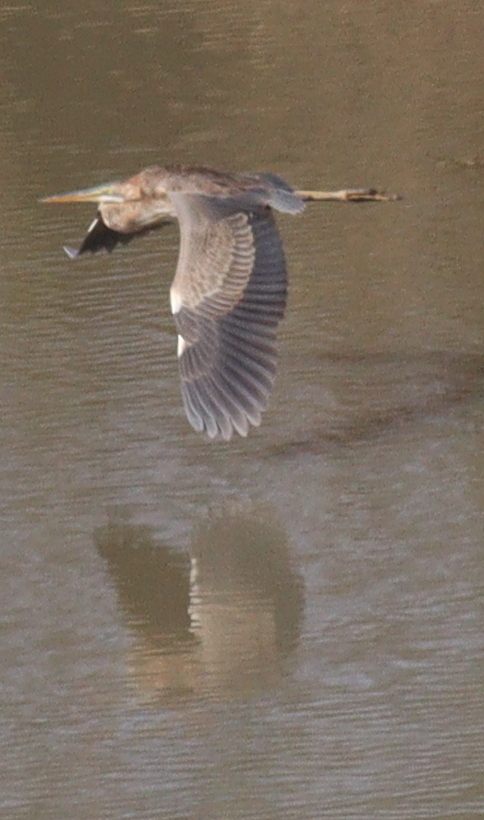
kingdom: Animalia
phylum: Chordata
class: Aves
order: Pelecaniformes
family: Ardeidae
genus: Ardea
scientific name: Ardea purpurea
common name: Purple heron
